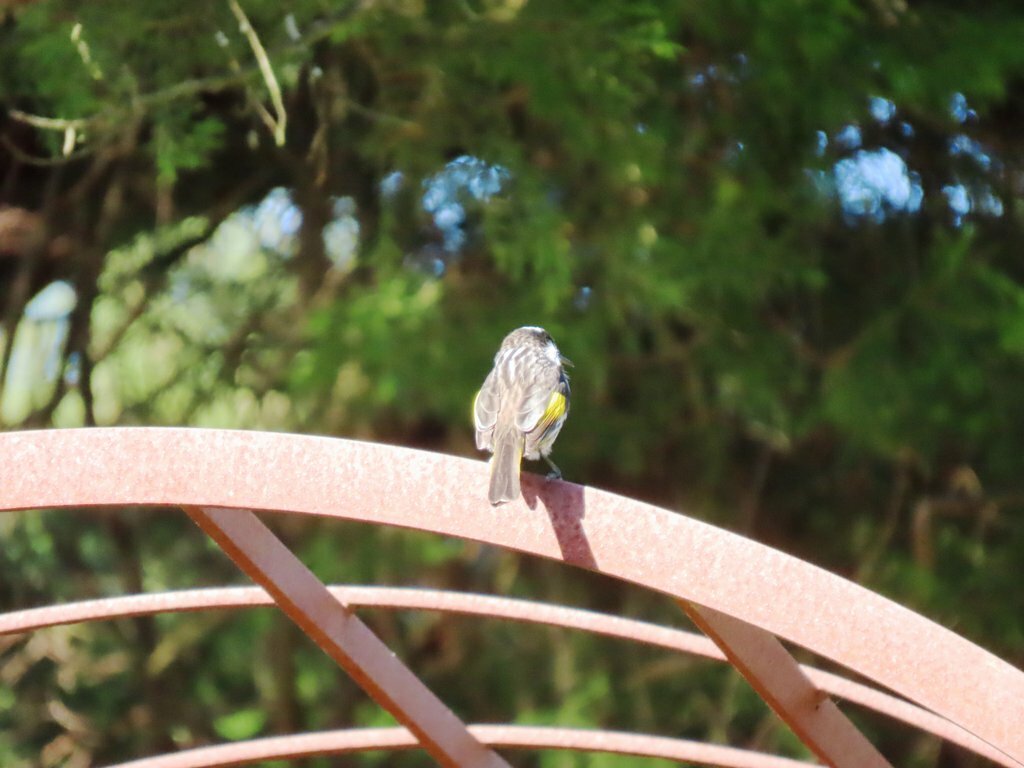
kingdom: Animalia
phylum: Chordata
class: Aves
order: Passeriformes
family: Meliphagidae
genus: Phylidonyris
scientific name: Phylidonyris novaehollandiae
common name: New holland honeyeater
